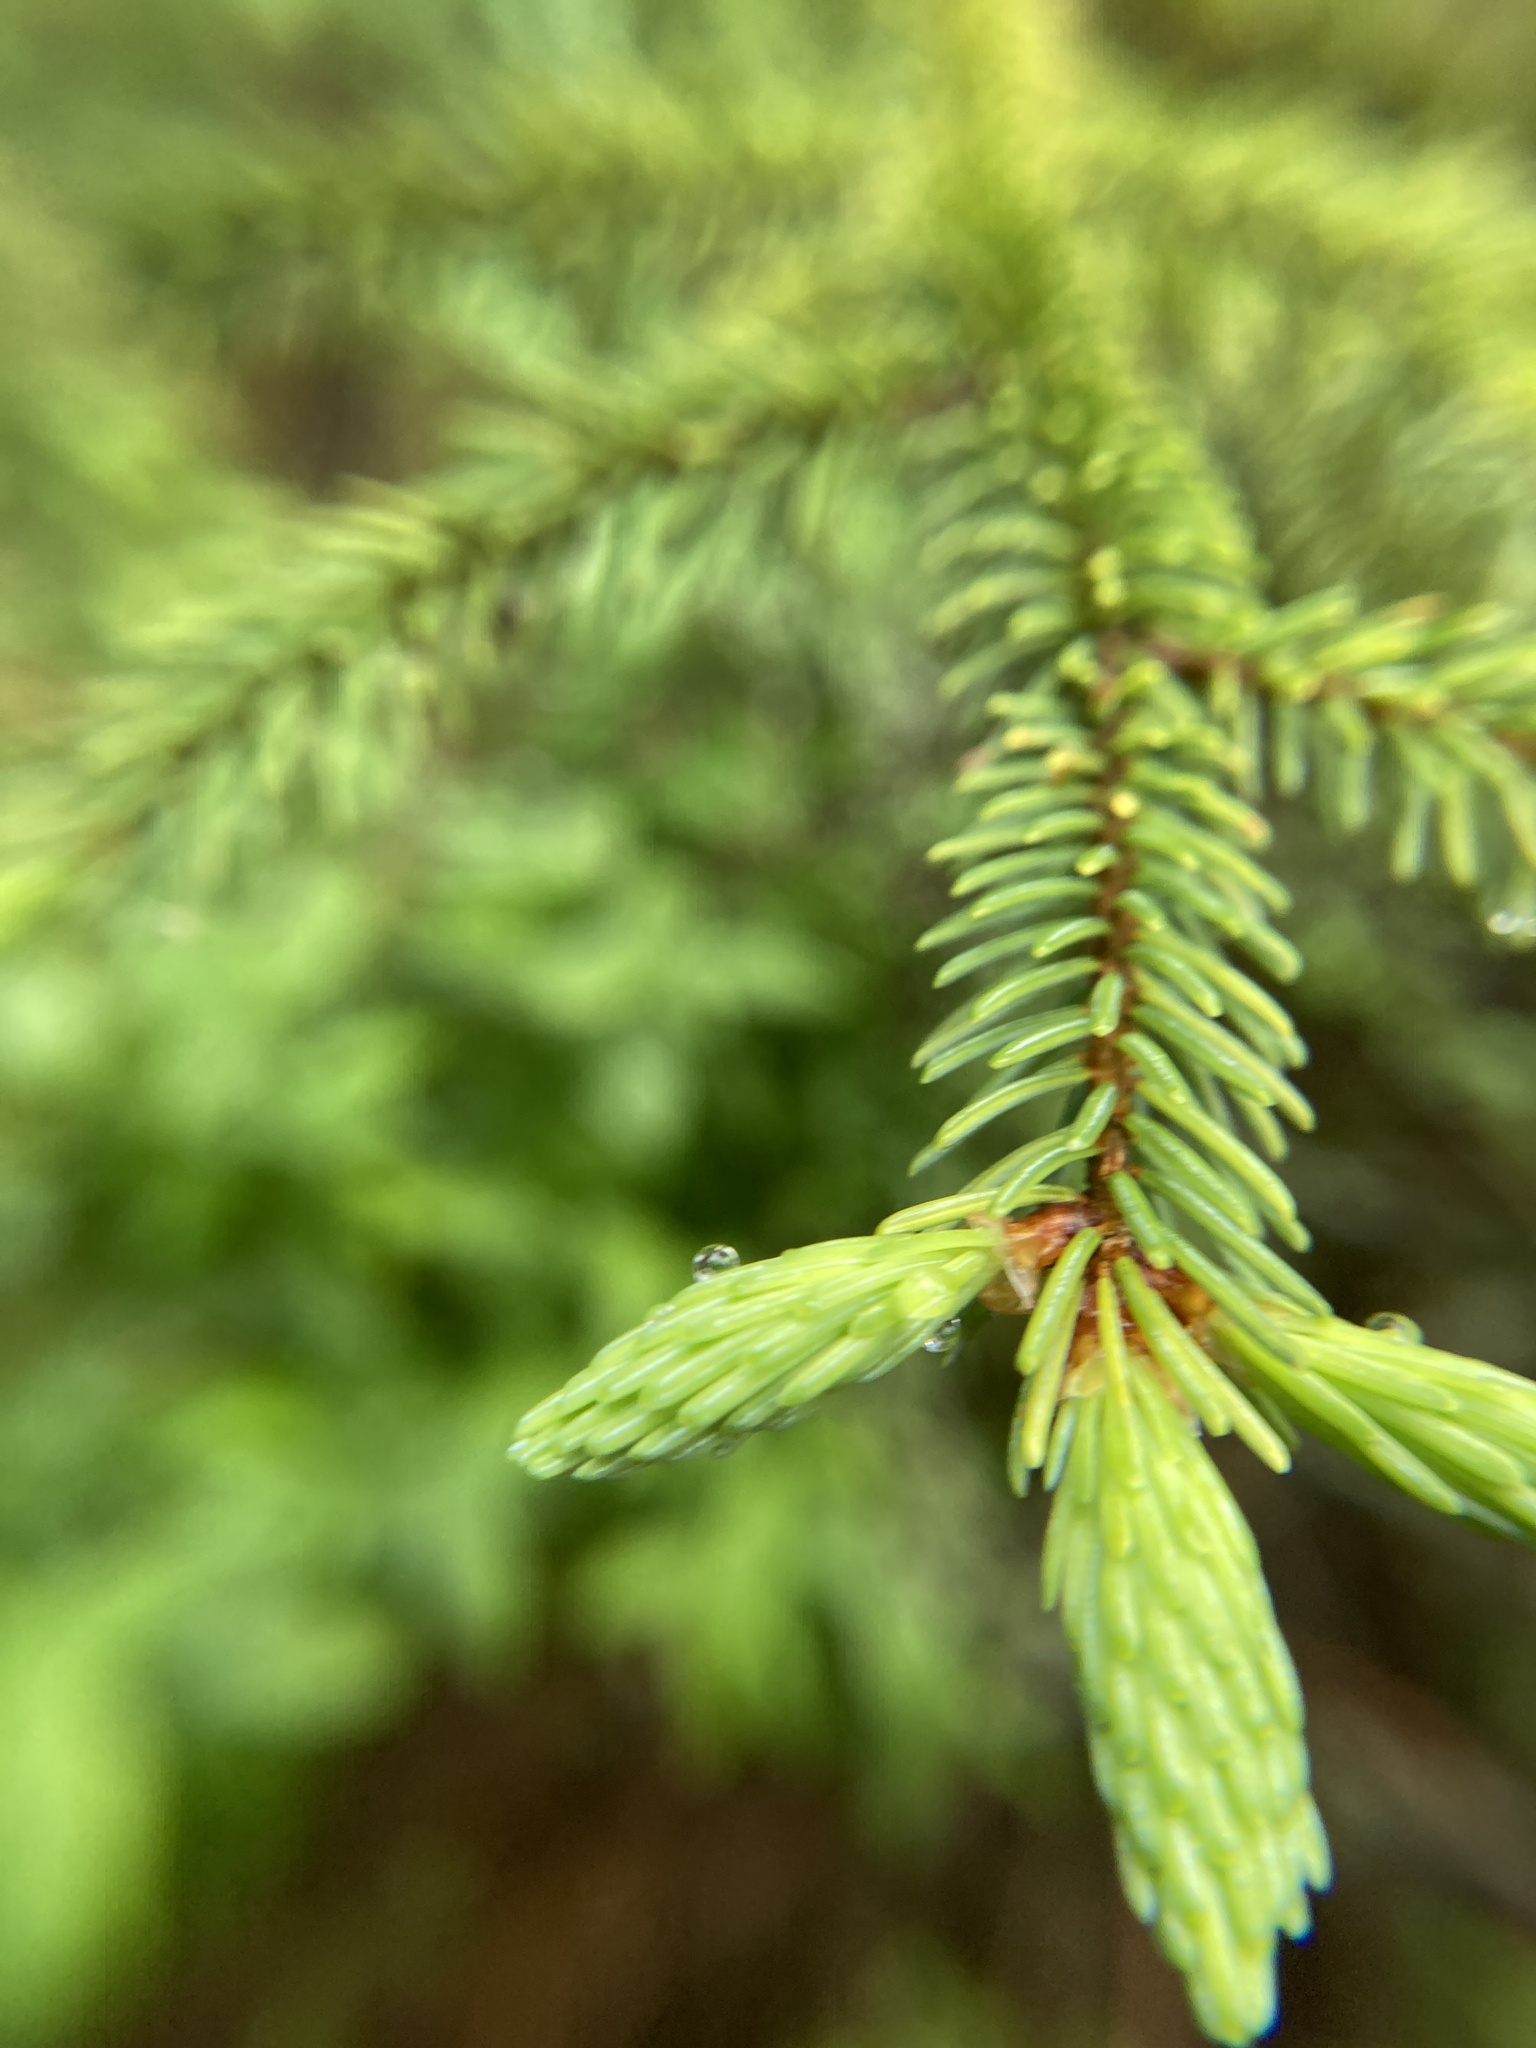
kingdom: Plantae
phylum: Tracheophyta
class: Pinopsida
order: Pinales
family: Pinaceae
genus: Picea
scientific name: Picea mariana
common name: Black spruce
